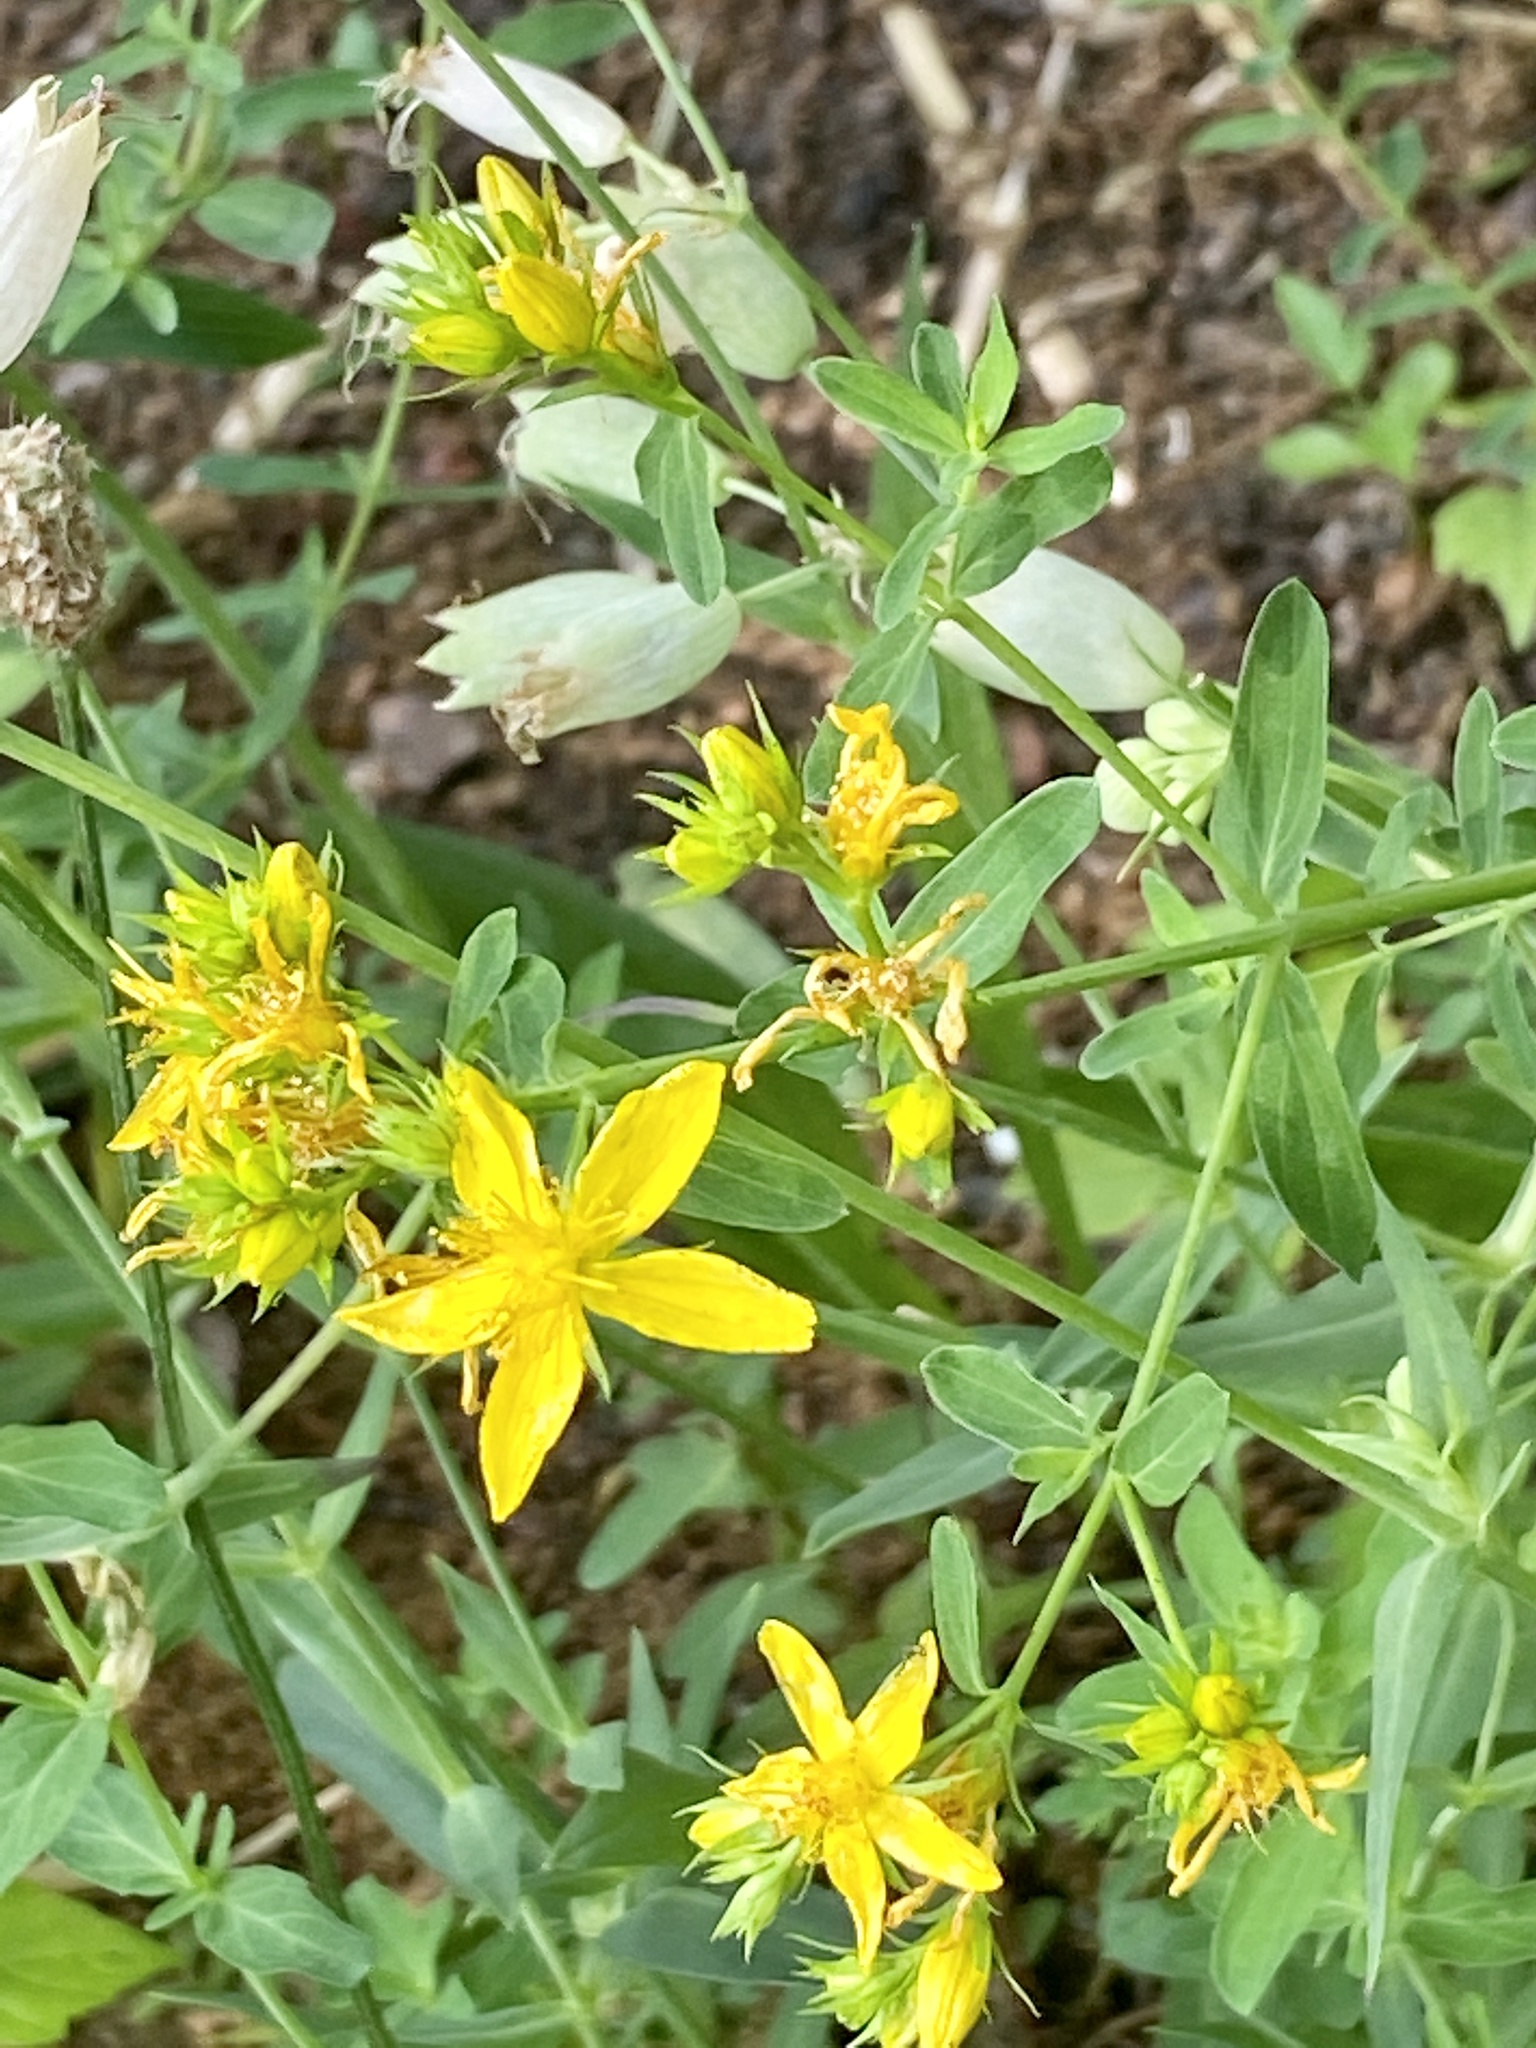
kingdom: Plantae
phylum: Tracheophyta
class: Magnoliopsida
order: Malpighiales
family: Hypericaceae
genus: Hypericum
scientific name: Hypericum perforatum
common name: Common st. johnswort
